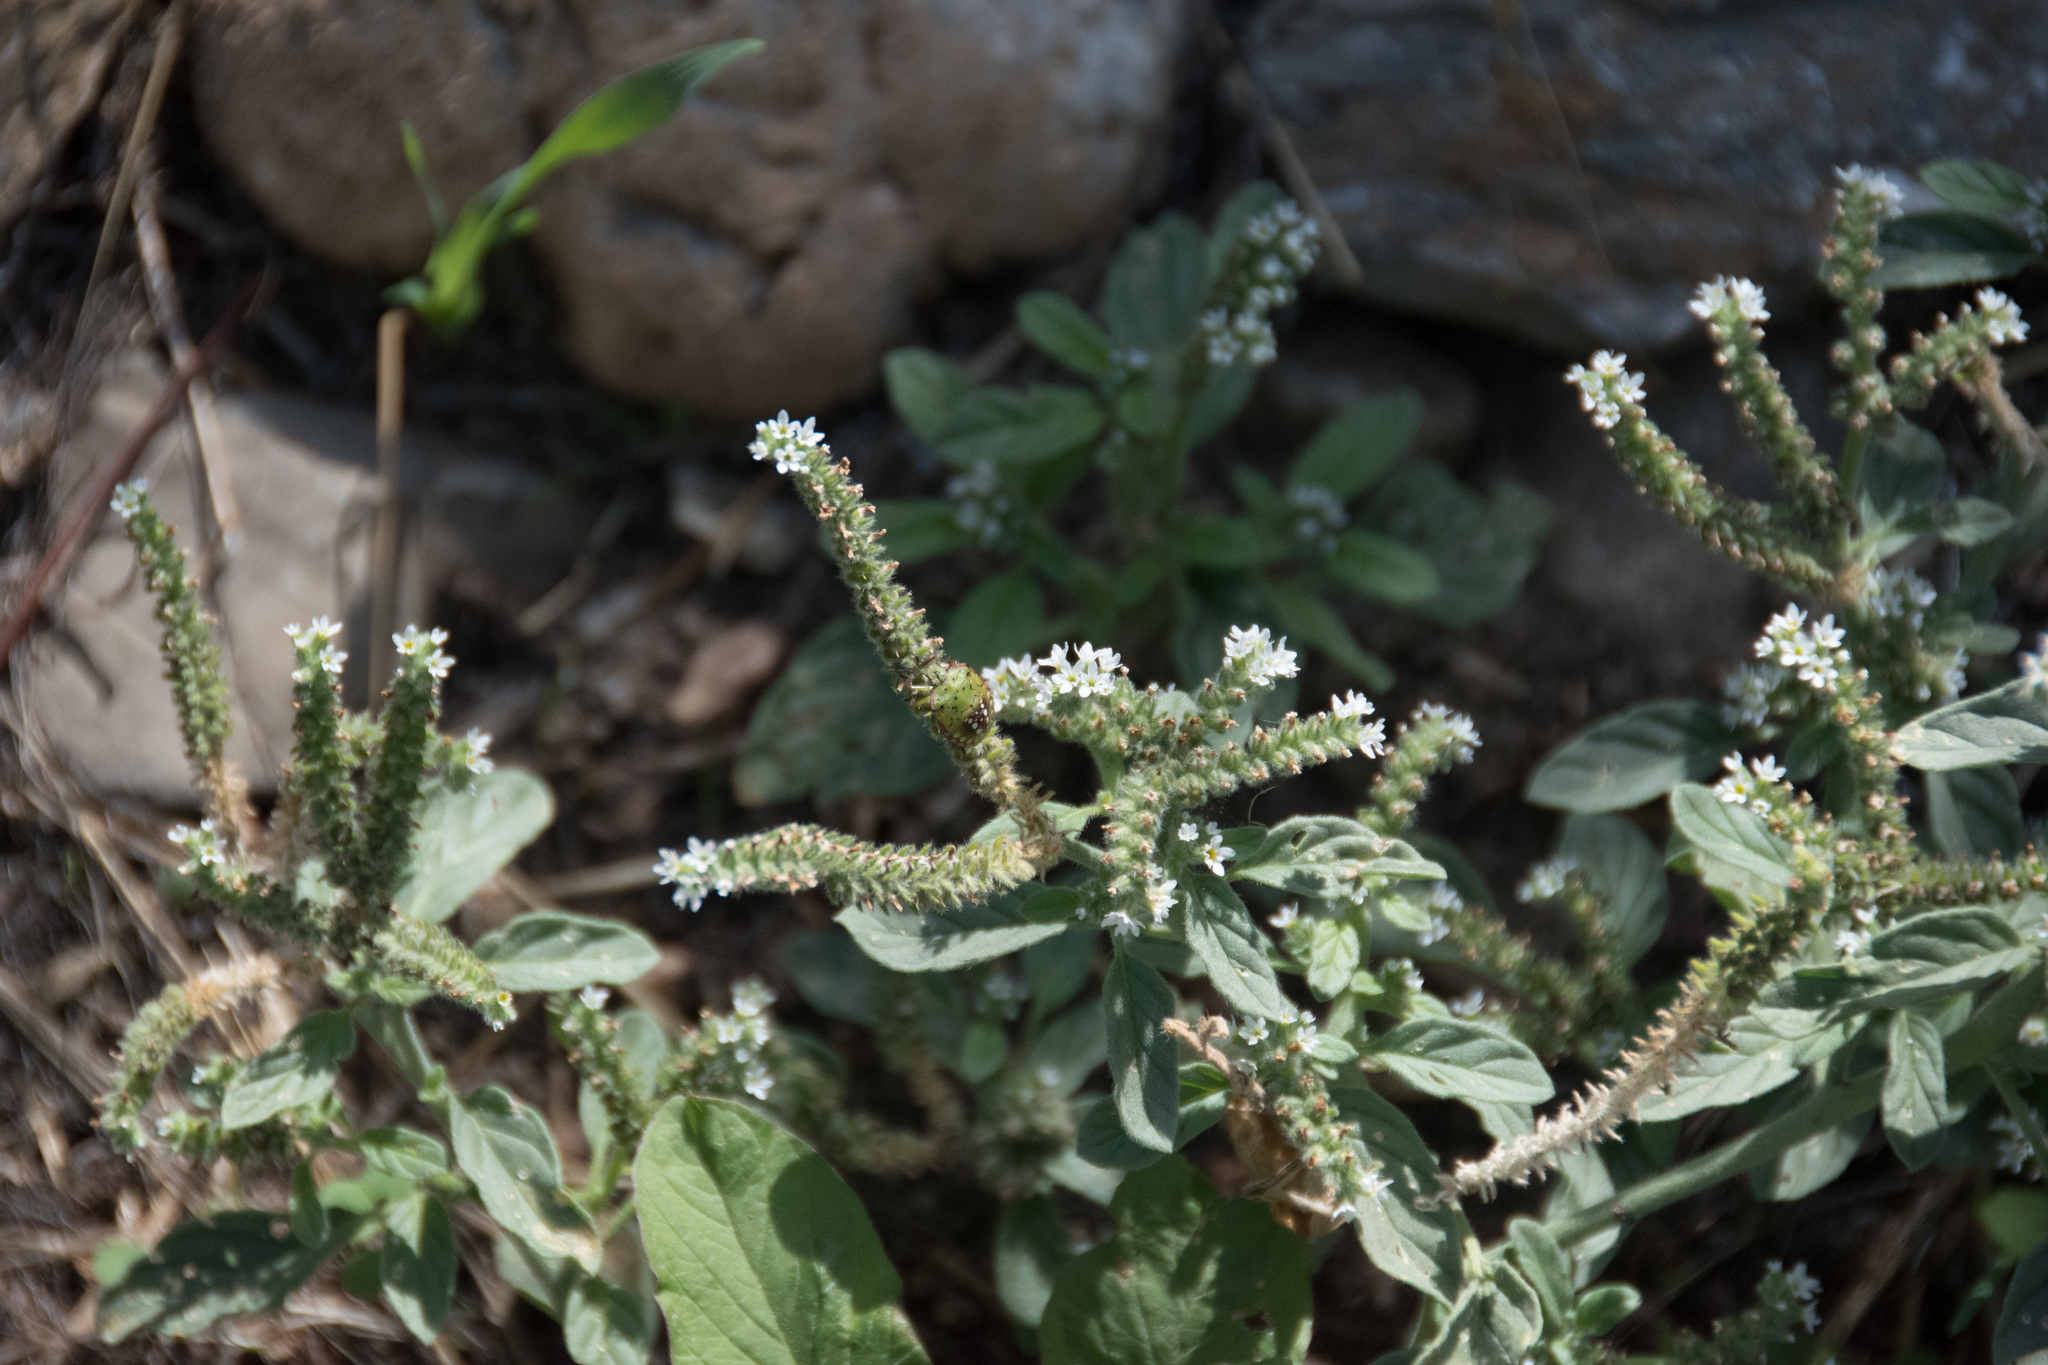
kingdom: Plantae
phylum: Tracheophyta
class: Magnoliopsida
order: Boraginales
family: Heliotropiaceae
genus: Heliotropium
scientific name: Heliotropium europaeum
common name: European heliotrope
